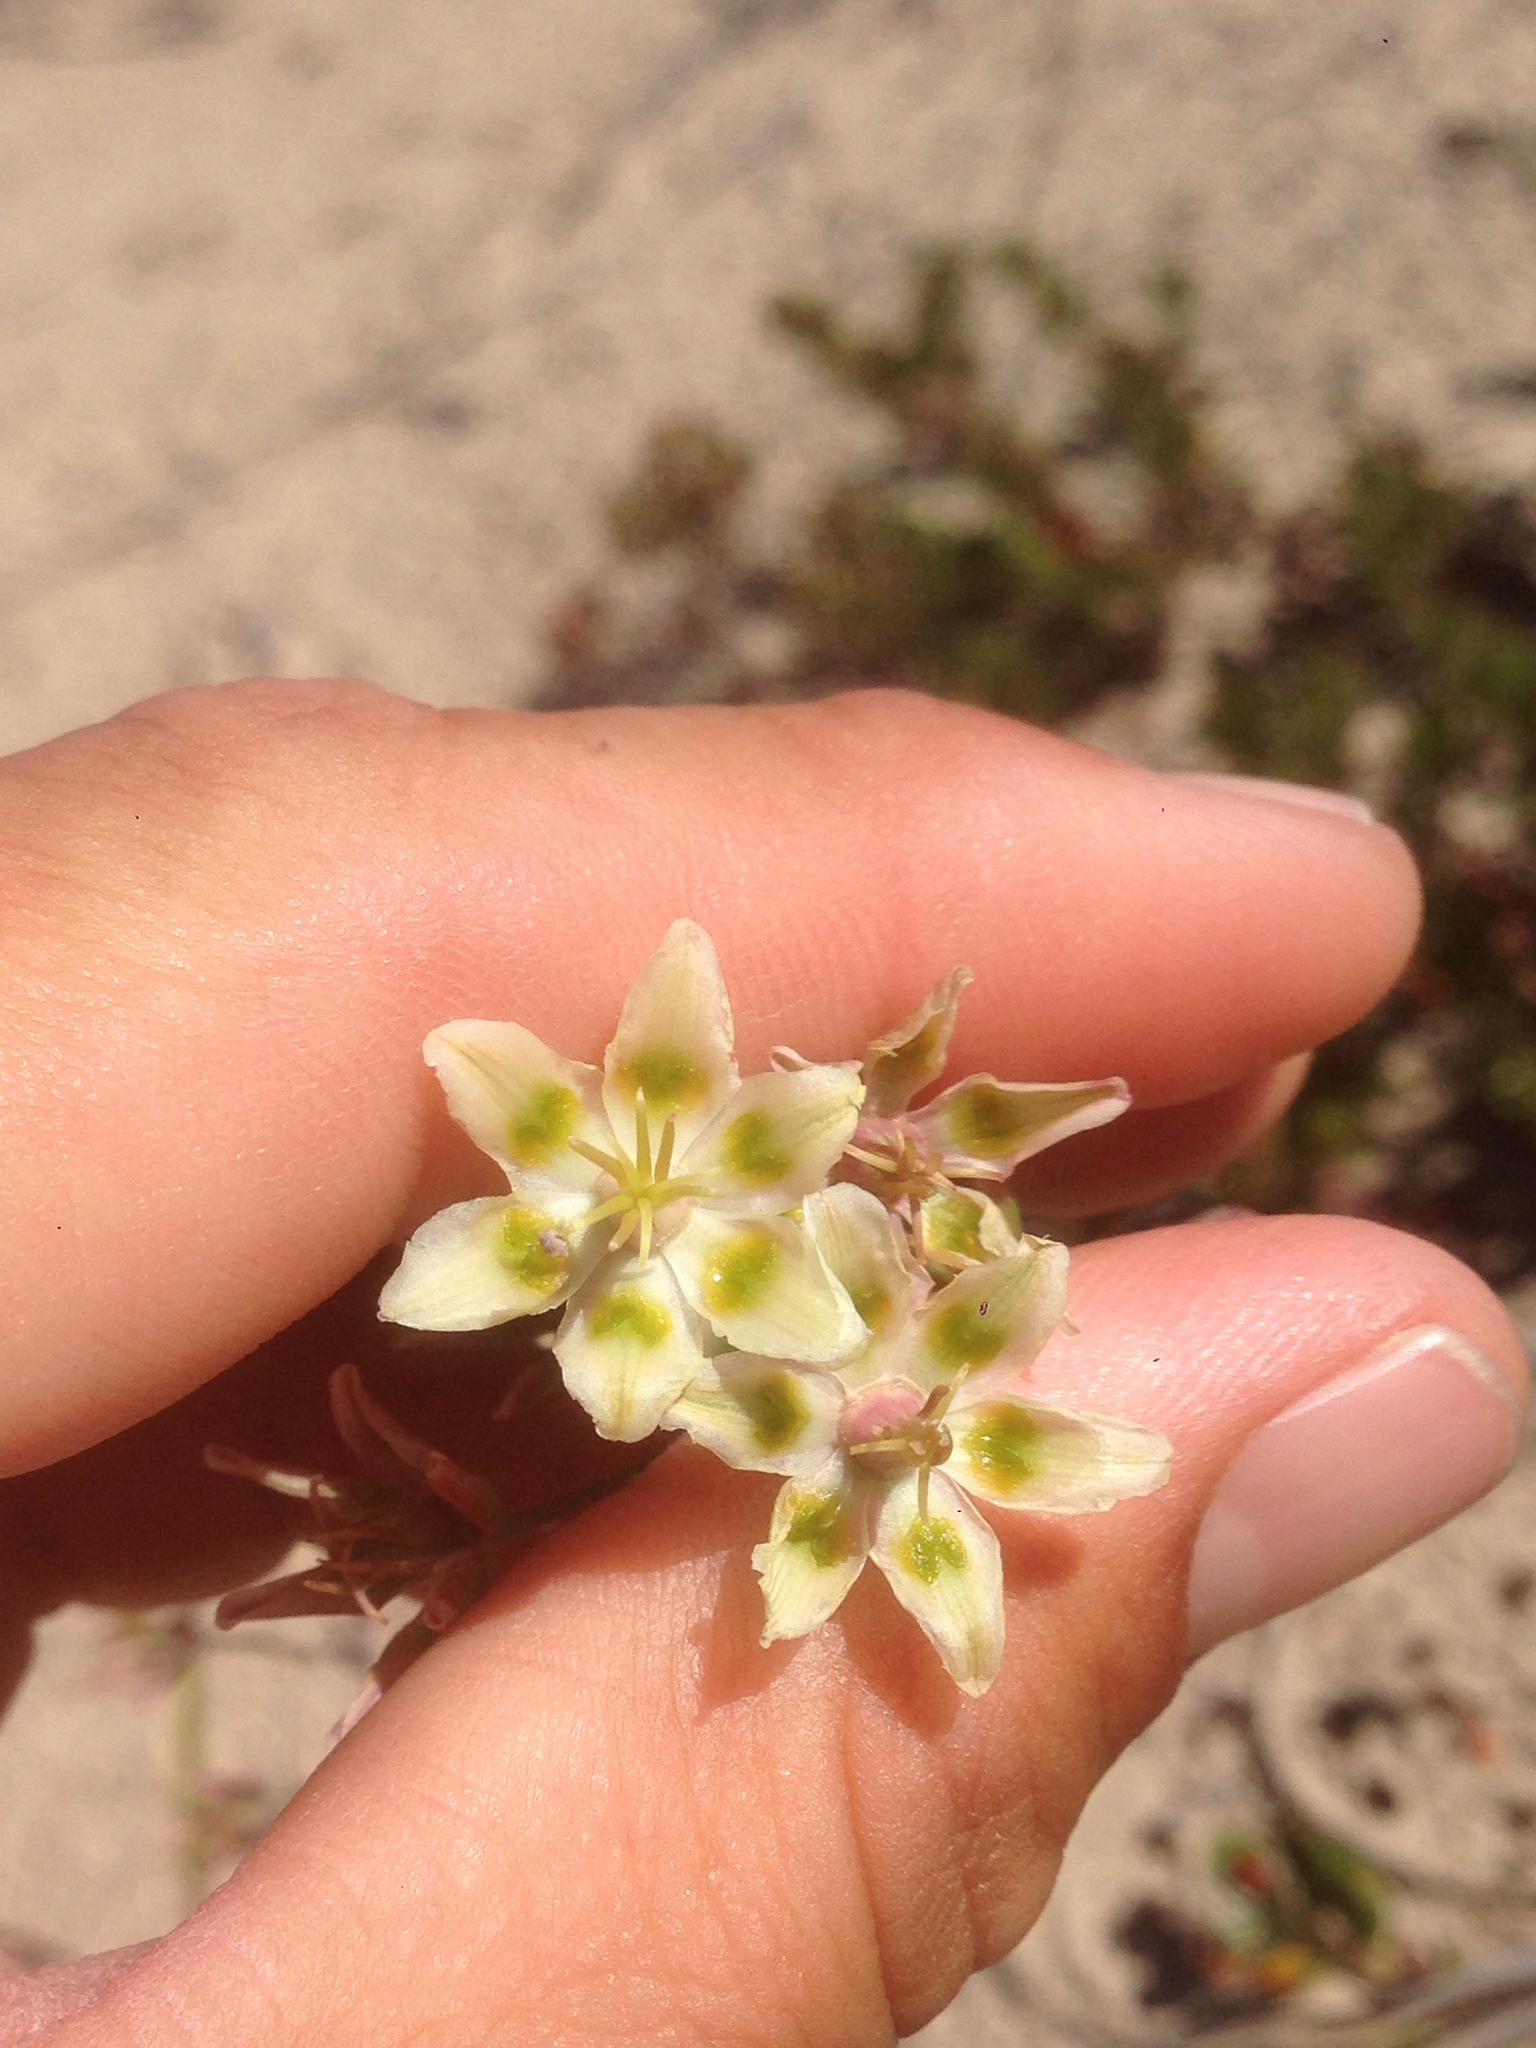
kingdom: Plantae
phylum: Tracheophyta
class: Liliopsida
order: Liliales
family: Melanthiaceae
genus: Anticlea
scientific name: Anticlea elegans
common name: Mountain death camas
